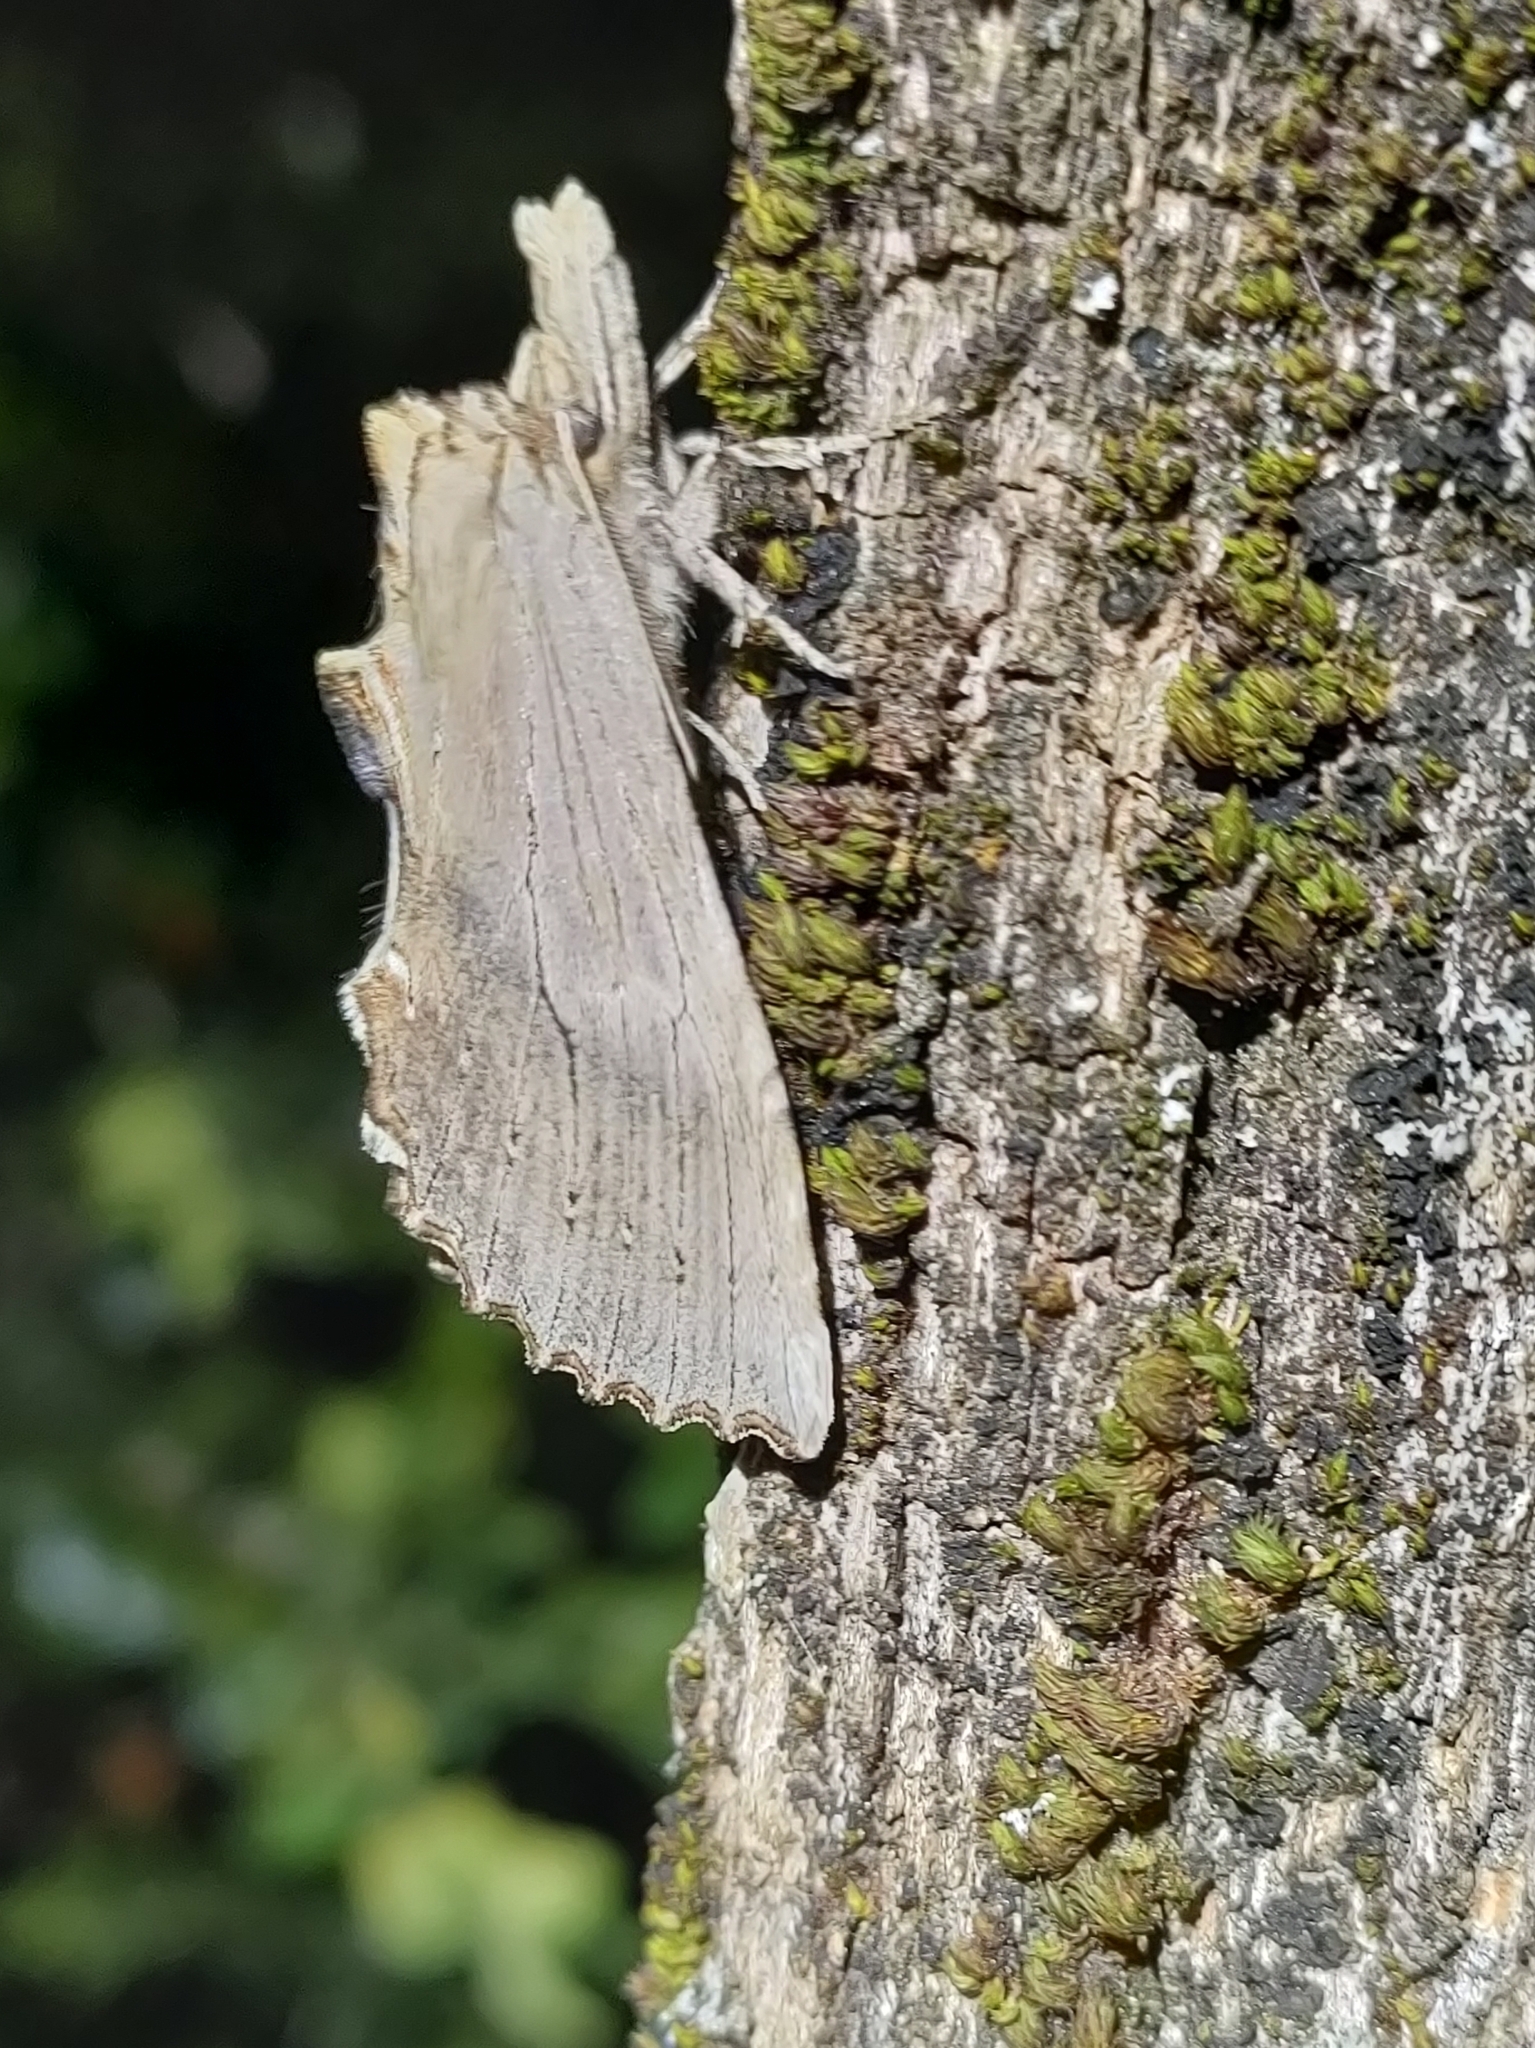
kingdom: Animalia
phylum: Arthropoda
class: Insecta
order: Lepidoptera
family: Notodontidae
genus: Pterostoma
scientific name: Pterostoma palpina
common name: Pale prominent
